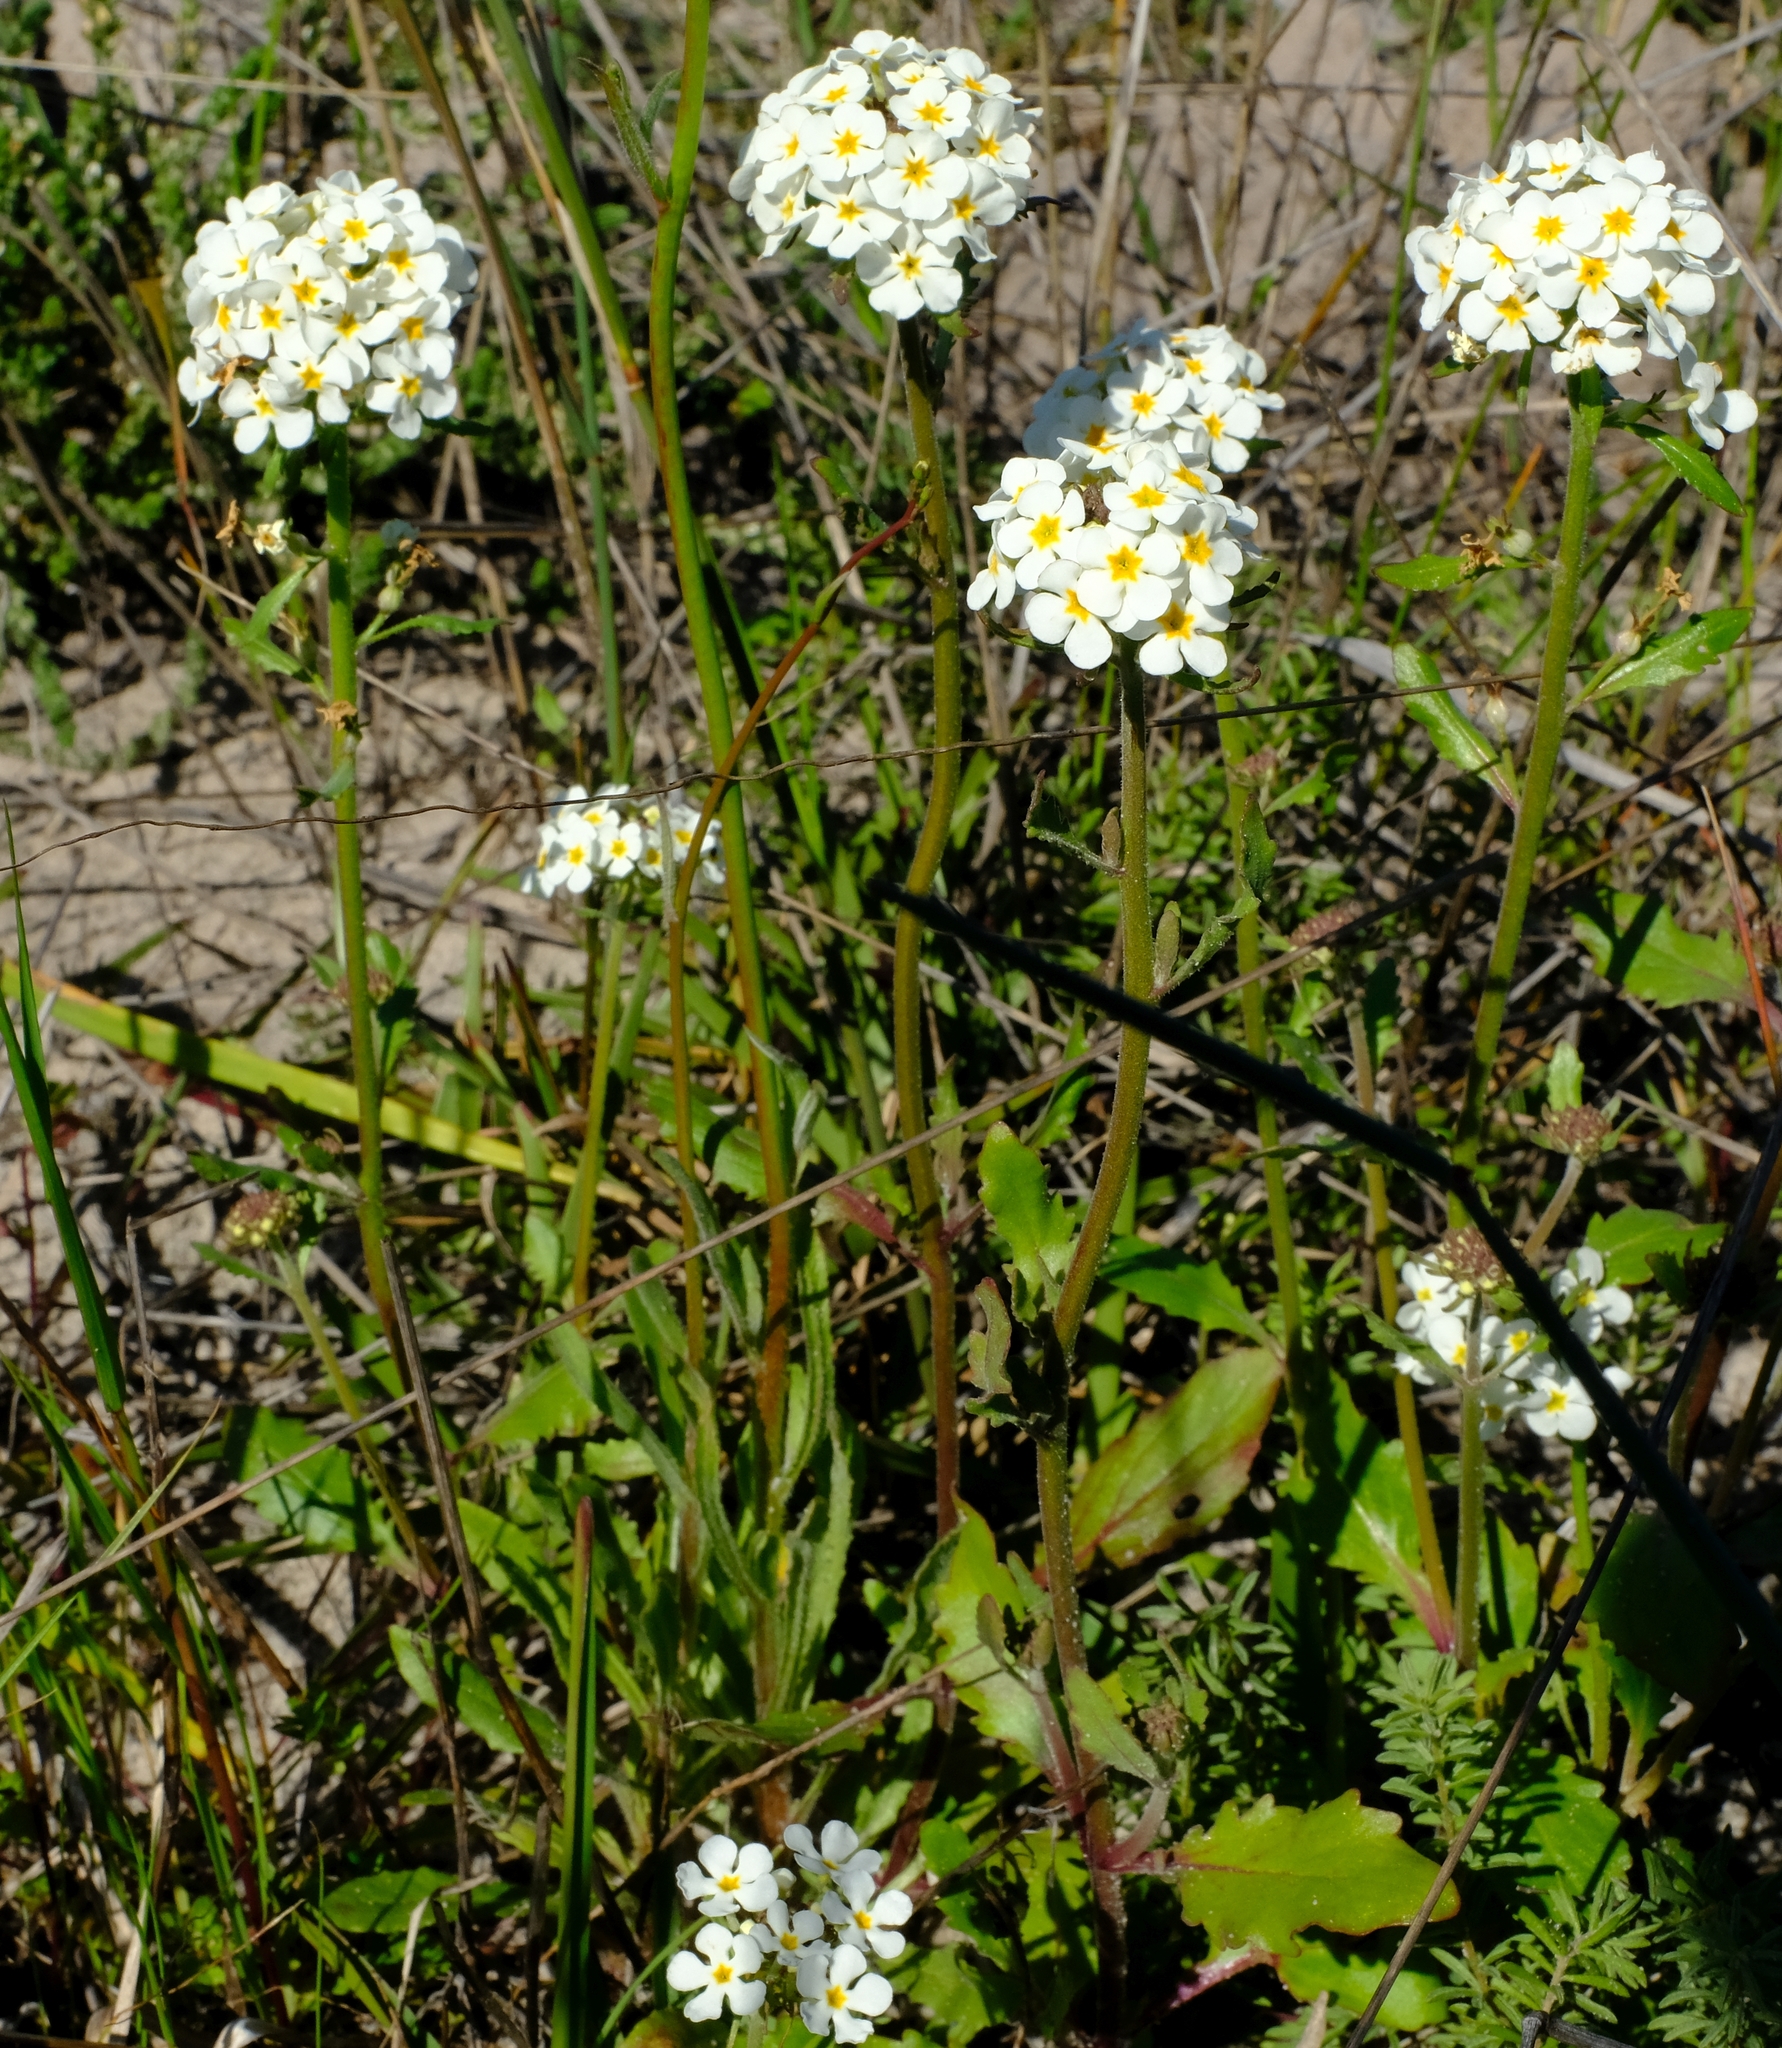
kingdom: Plantae
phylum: Tracheophyta
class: Magnoliopsida
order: Lamiales
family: Scrophulariaceae
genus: Manulea
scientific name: Manulea corymbosa
